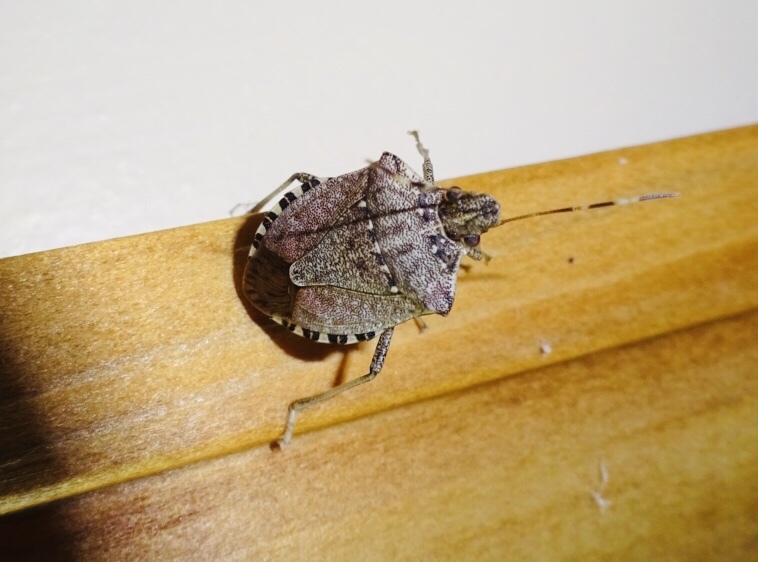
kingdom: Animalia
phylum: Arthropoda
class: Insecta
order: Hemiptera
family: Pentatomidae
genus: Halyomorpha
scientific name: Halyomorpha halys
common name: Brown marmorated stink bug
